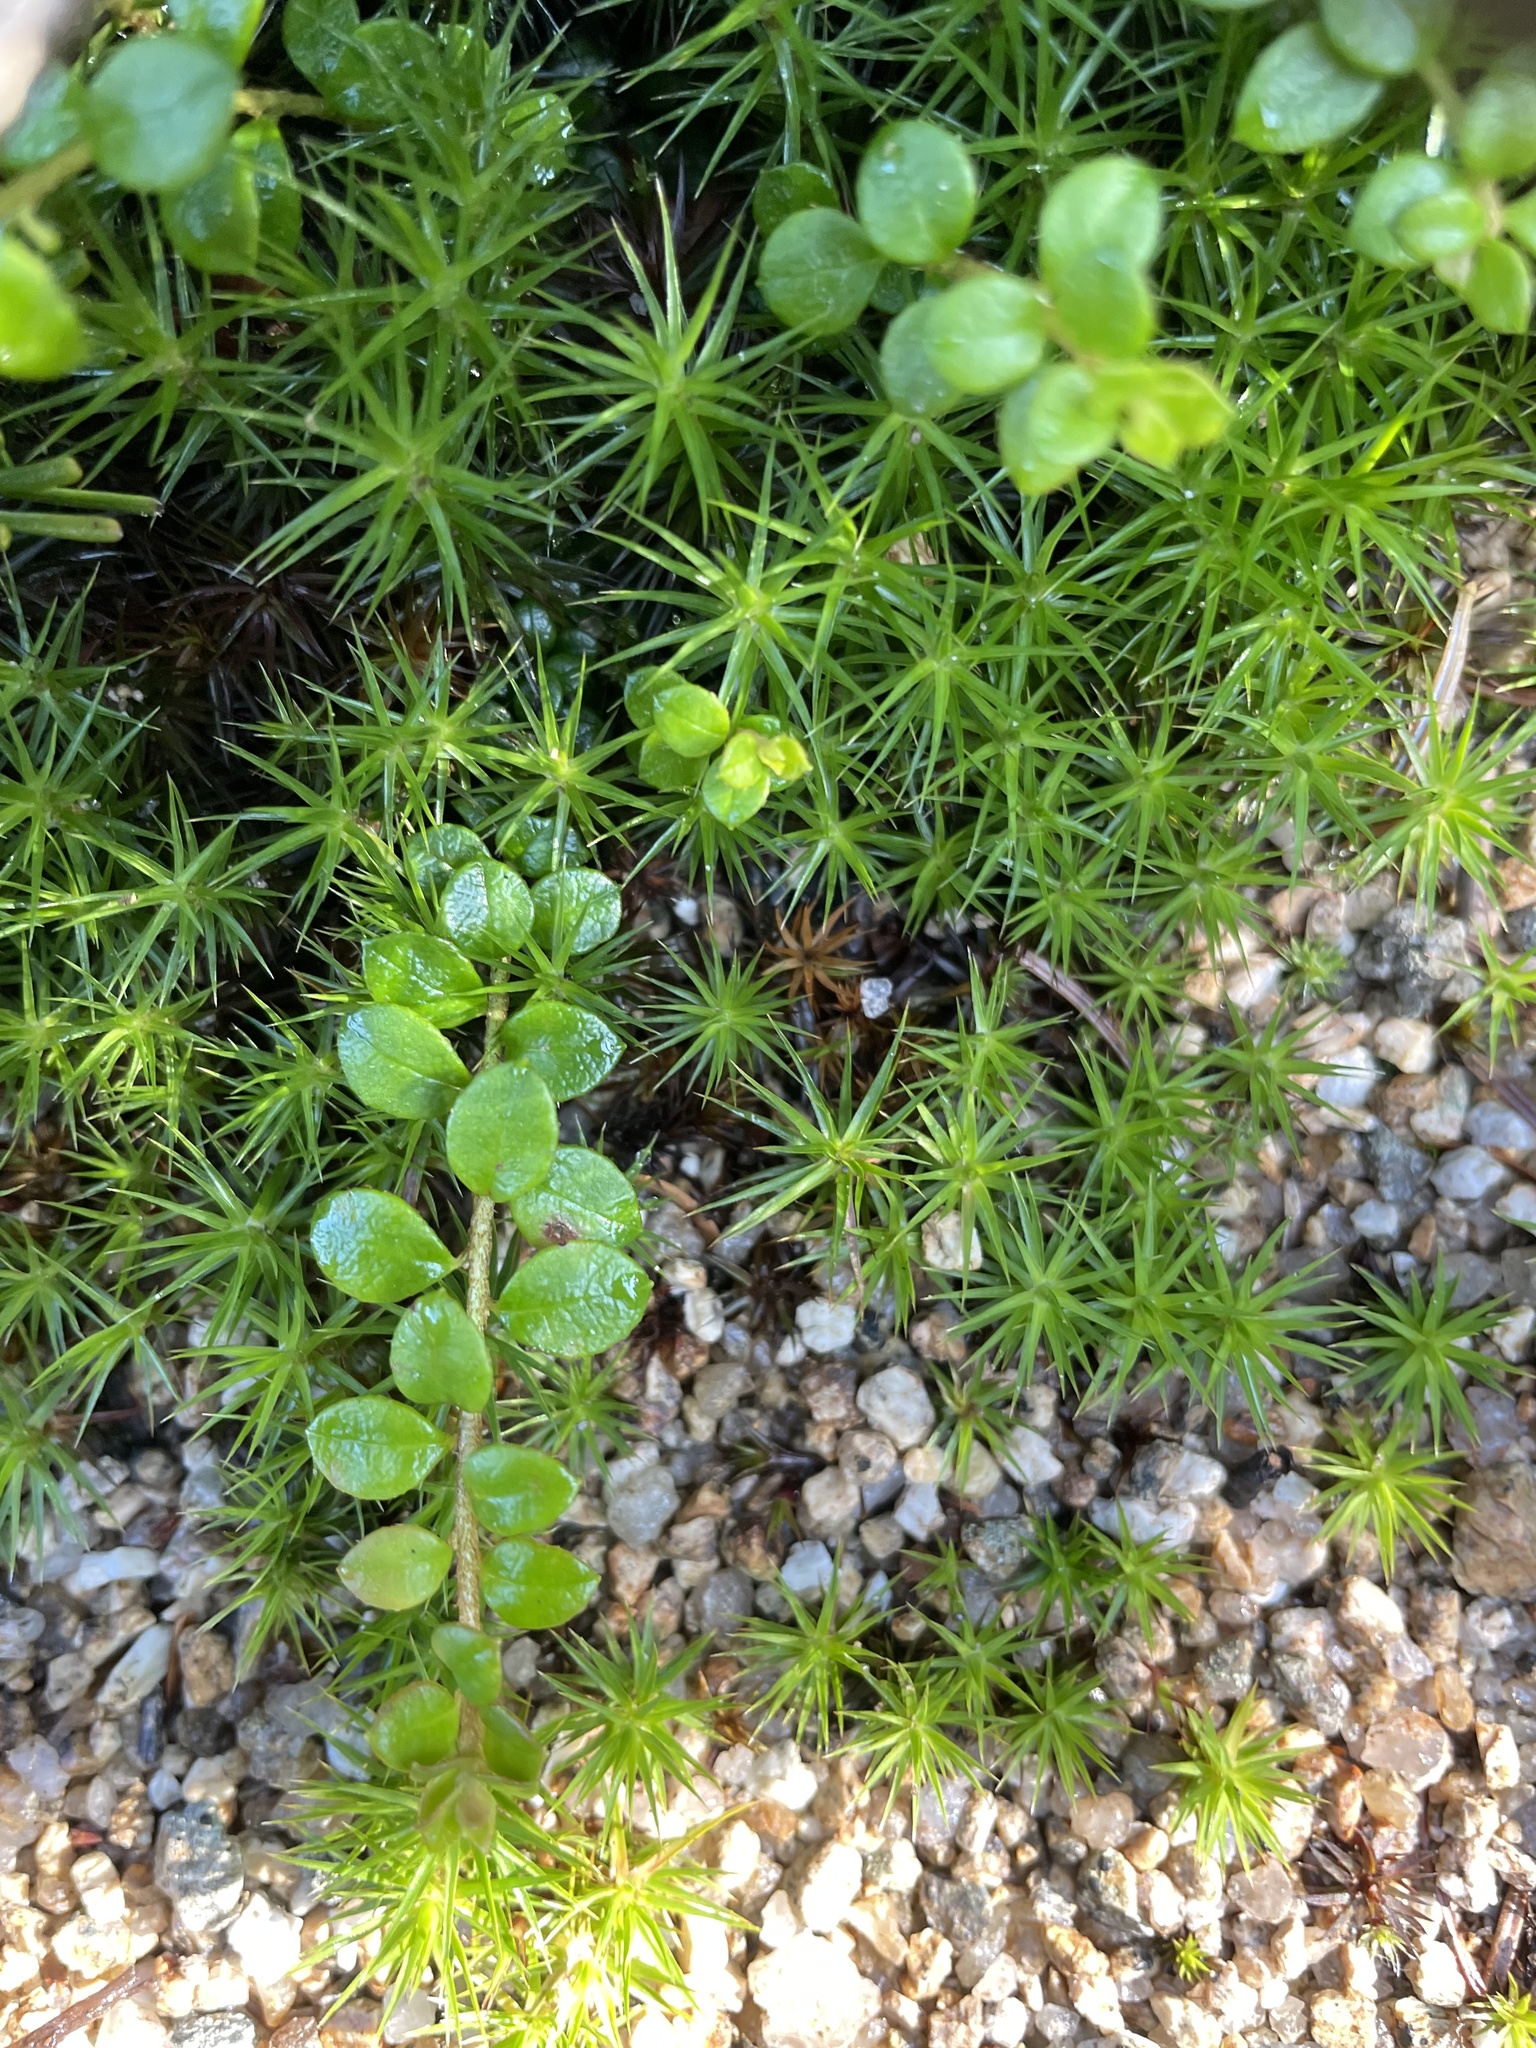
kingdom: Plantae
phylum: Tracheophyta
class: Magnoliopsida
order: Ericales
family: Ericaceae
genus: Gaultheria
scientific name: Gaultheria hispidula
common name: Cancer wintergreen
